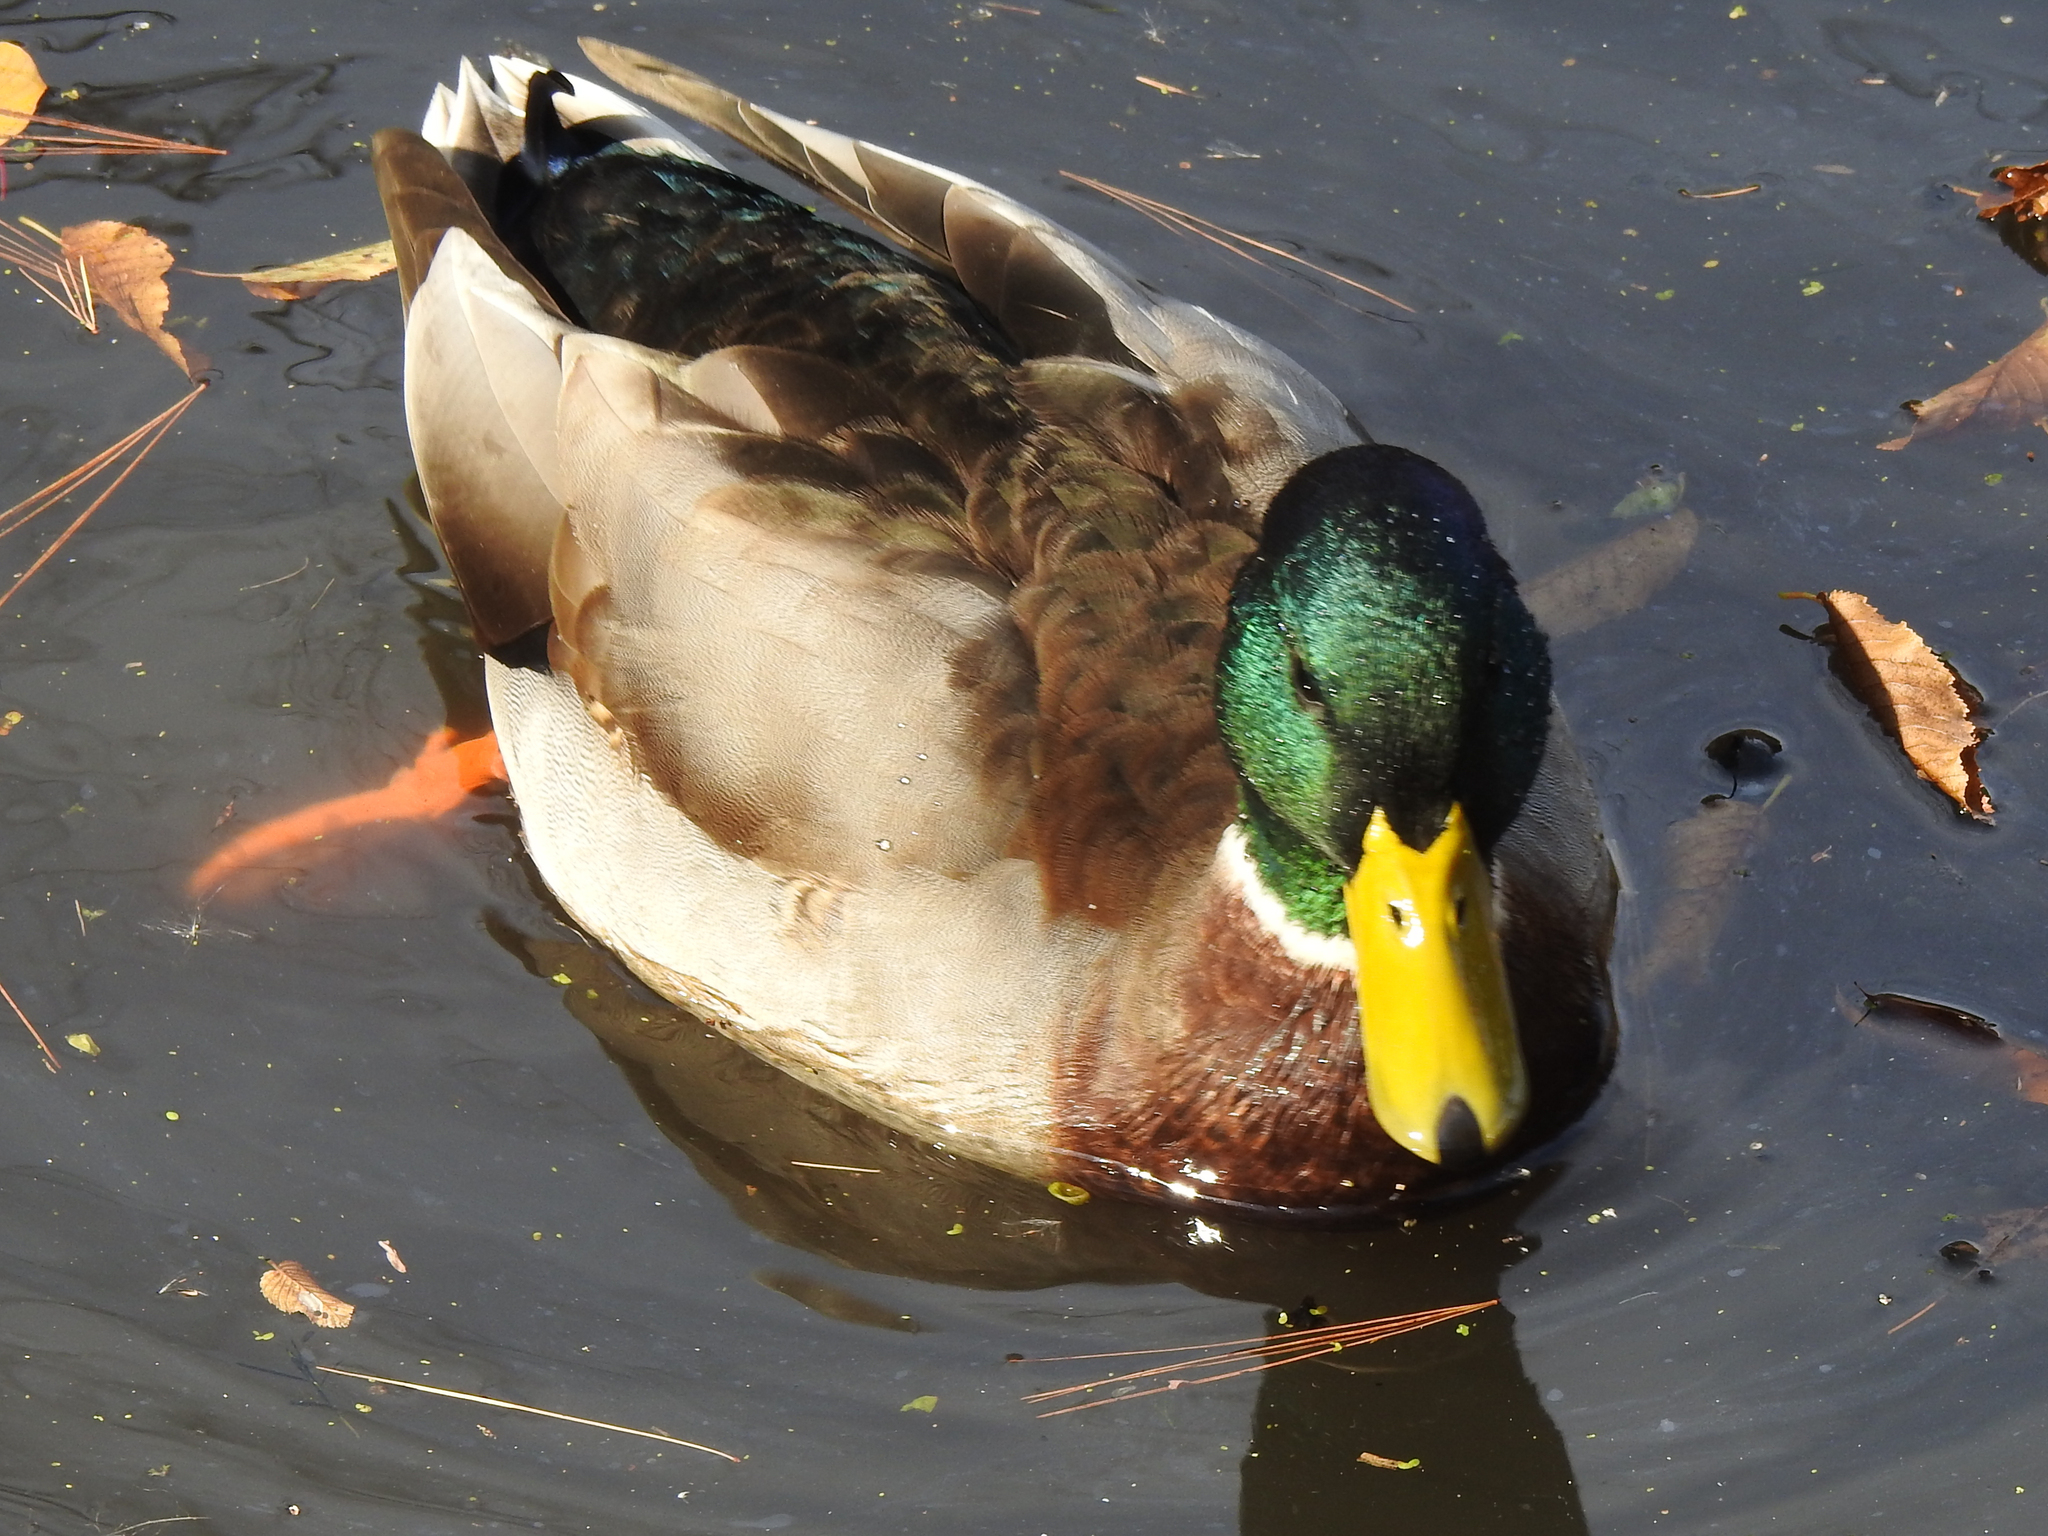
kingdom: Animalia
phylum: Chordata
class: Aves
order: Anseriformes
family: Anatidae
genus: Anas
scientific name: Anas platyrhynchos
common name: Mallard
